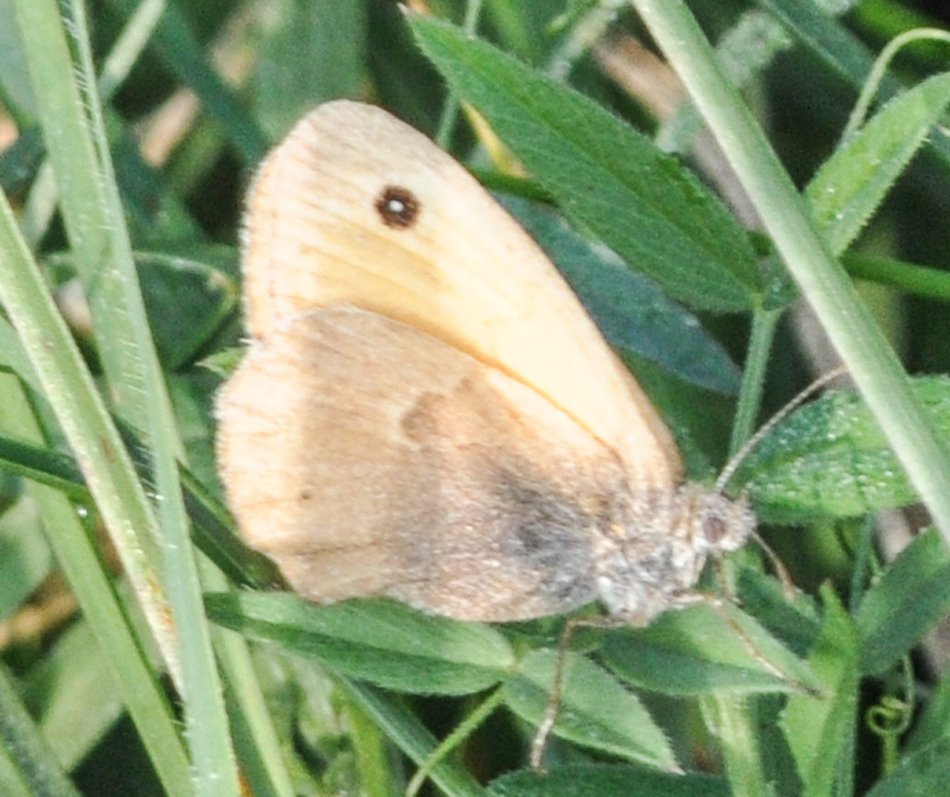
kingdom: Animalia
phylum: Arthropoda
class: Insecta
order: Lepidoptera
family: Nymphalidae
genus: Coenonympha
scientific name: Coenonympha pamphilus
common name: Small heath
